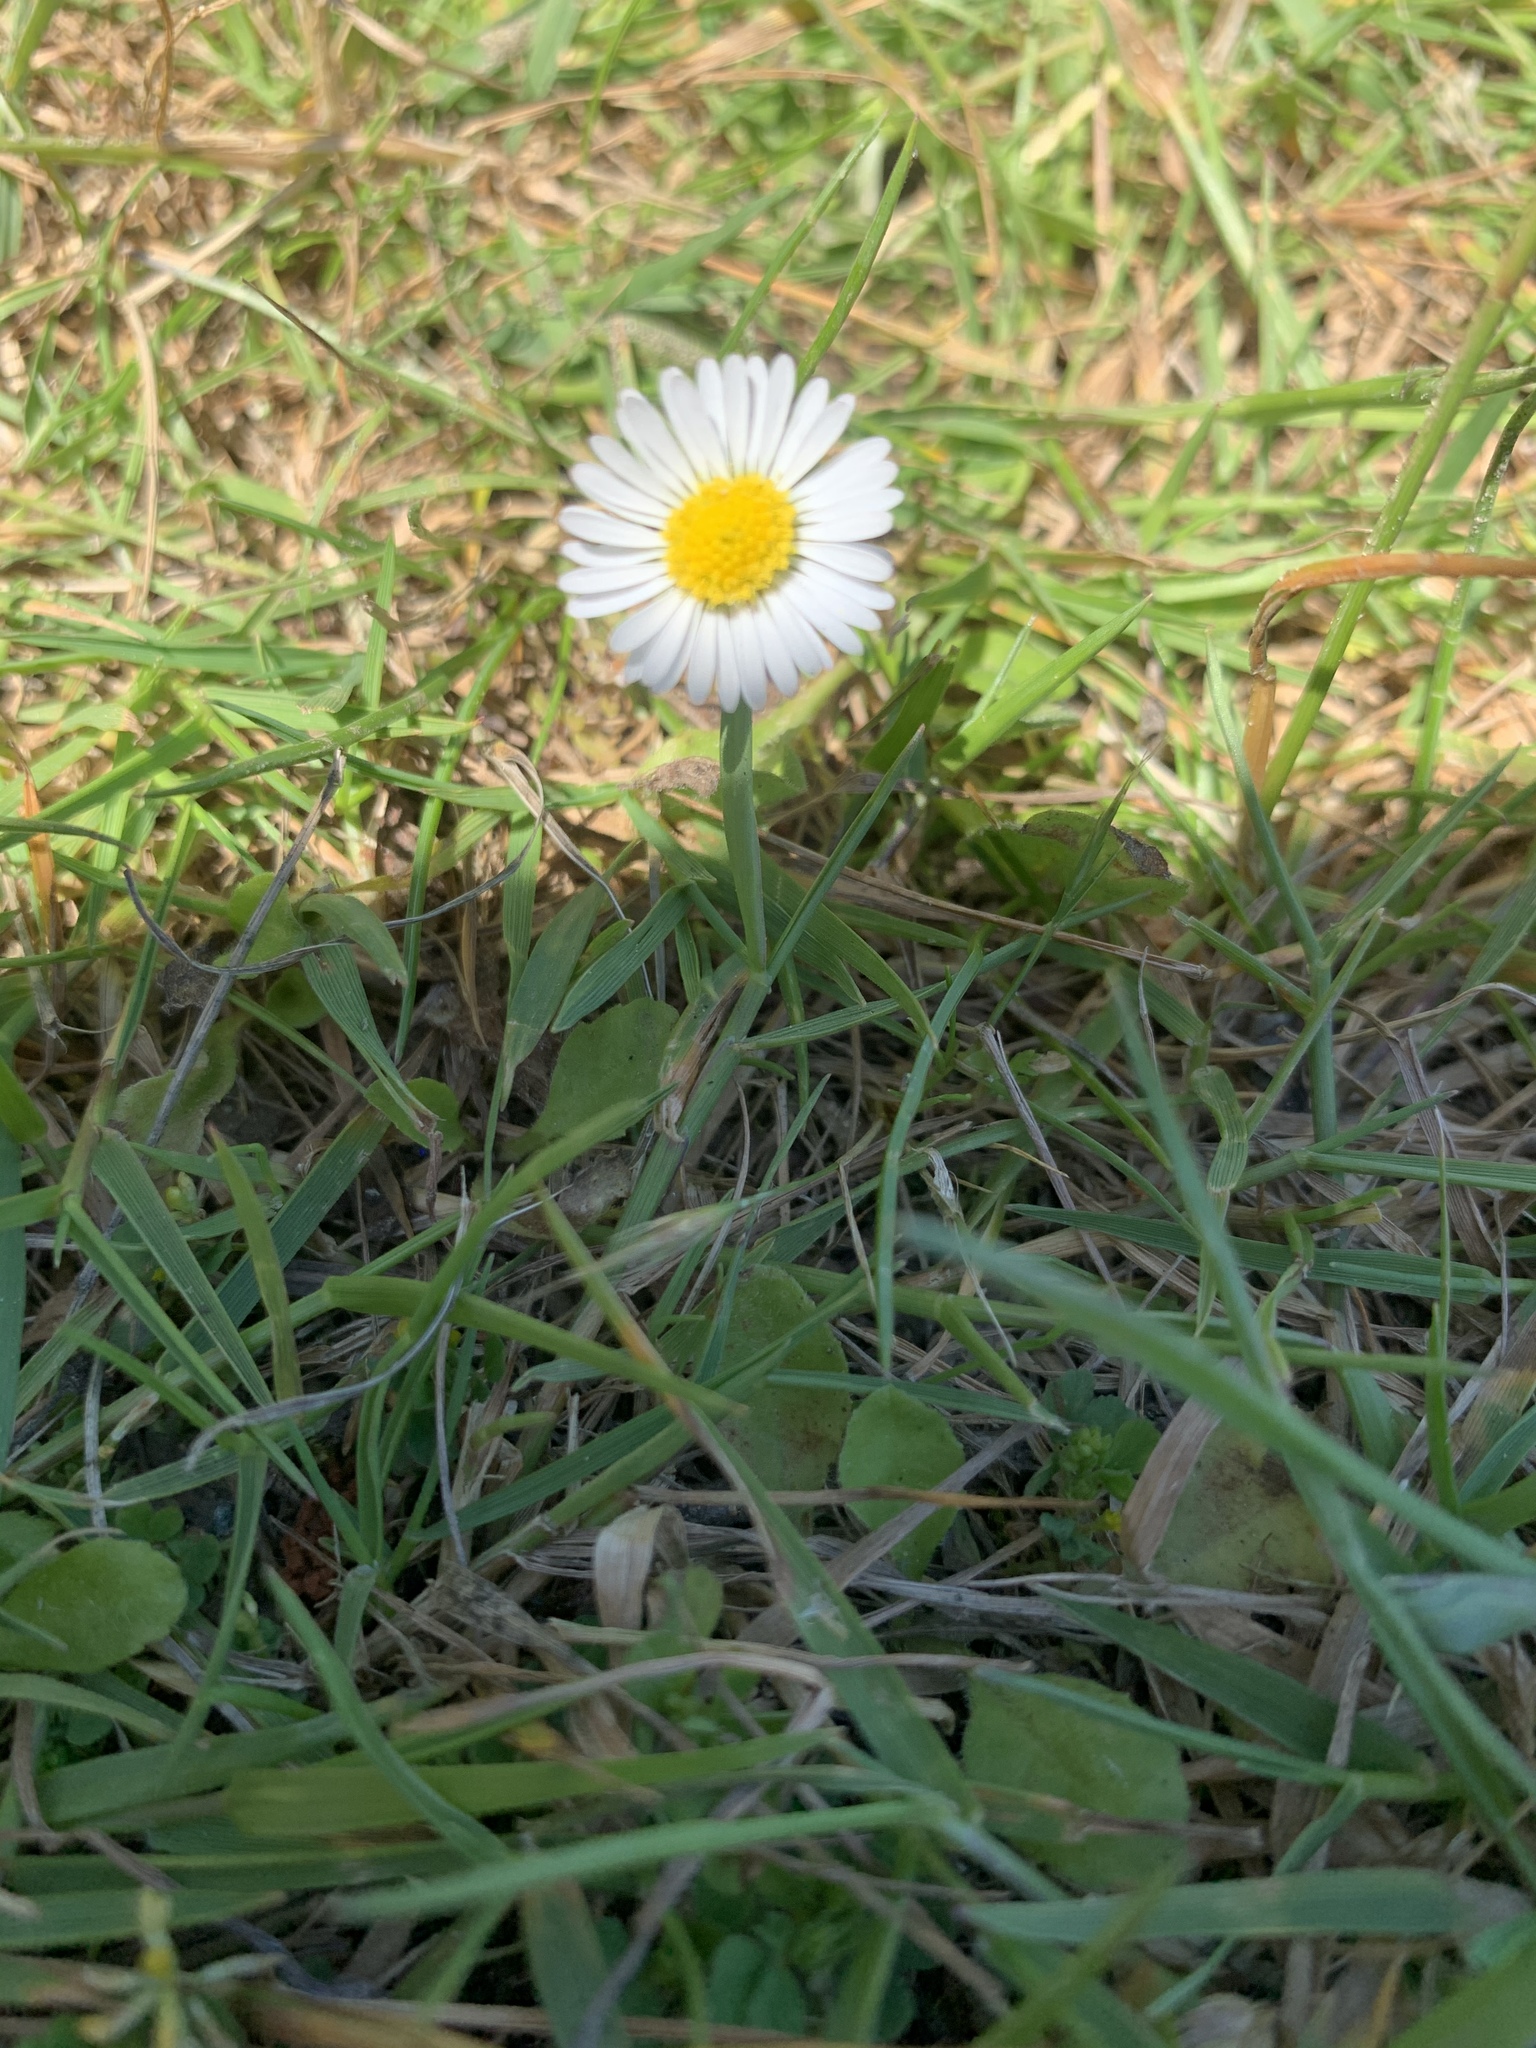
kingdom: Plantae
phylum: Tracheophyta
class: Magnoliopsida
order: Asterales
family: Asteraceae
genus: Bellis
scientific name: Bellis perennis
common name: Lawndaisy
